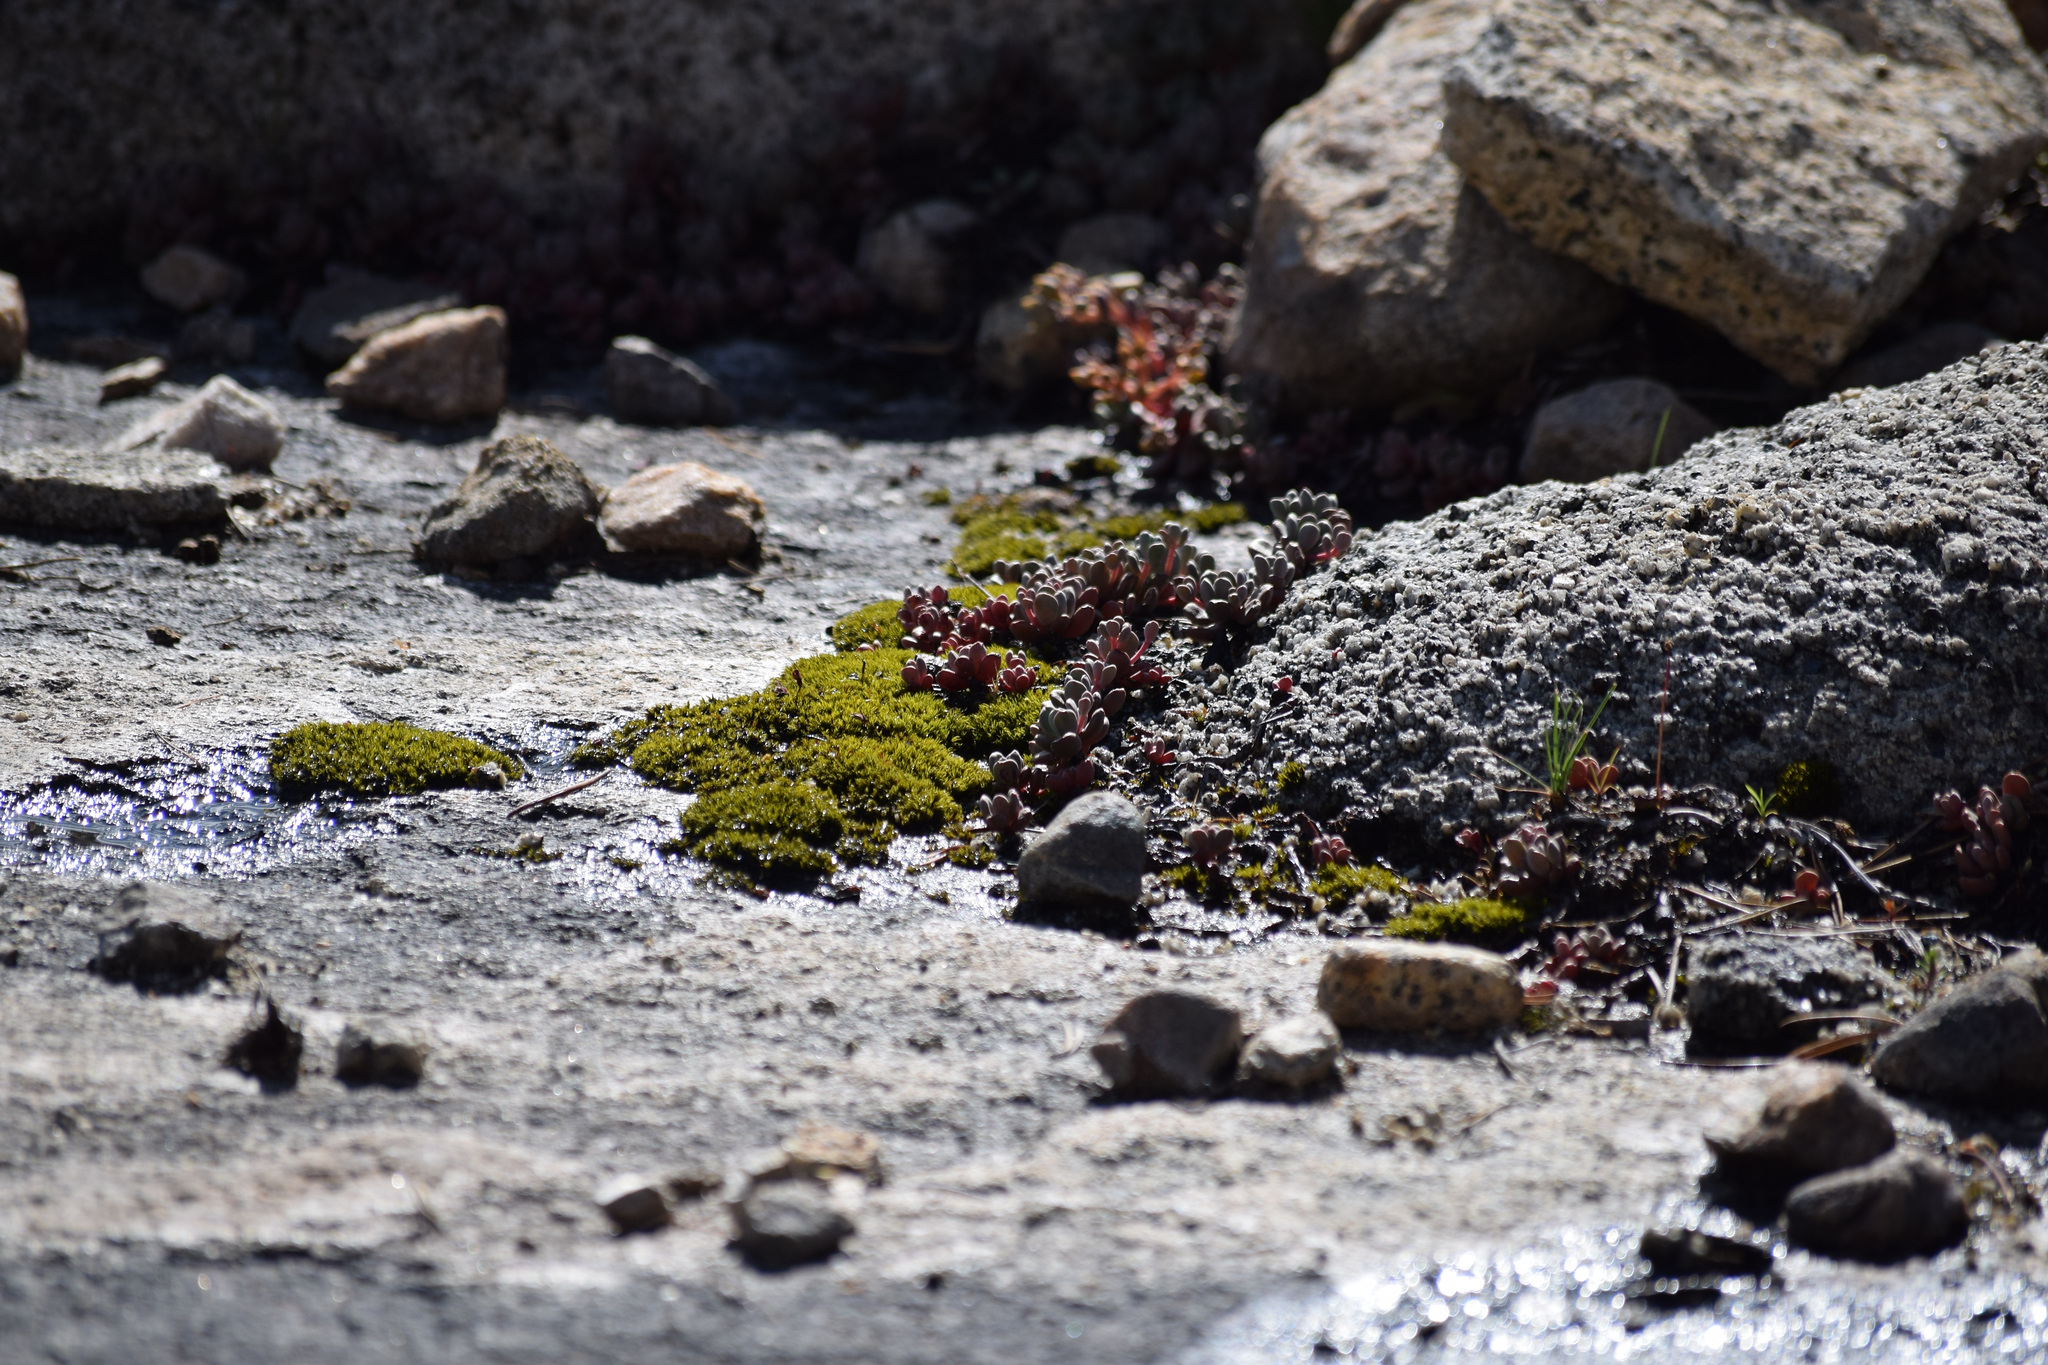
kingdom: Plantae
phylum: Tracheophyta
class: Magnoliopsida
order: Saxifragales
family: Crassulaceae
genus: Sedum
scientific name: Sedum obtusatum
